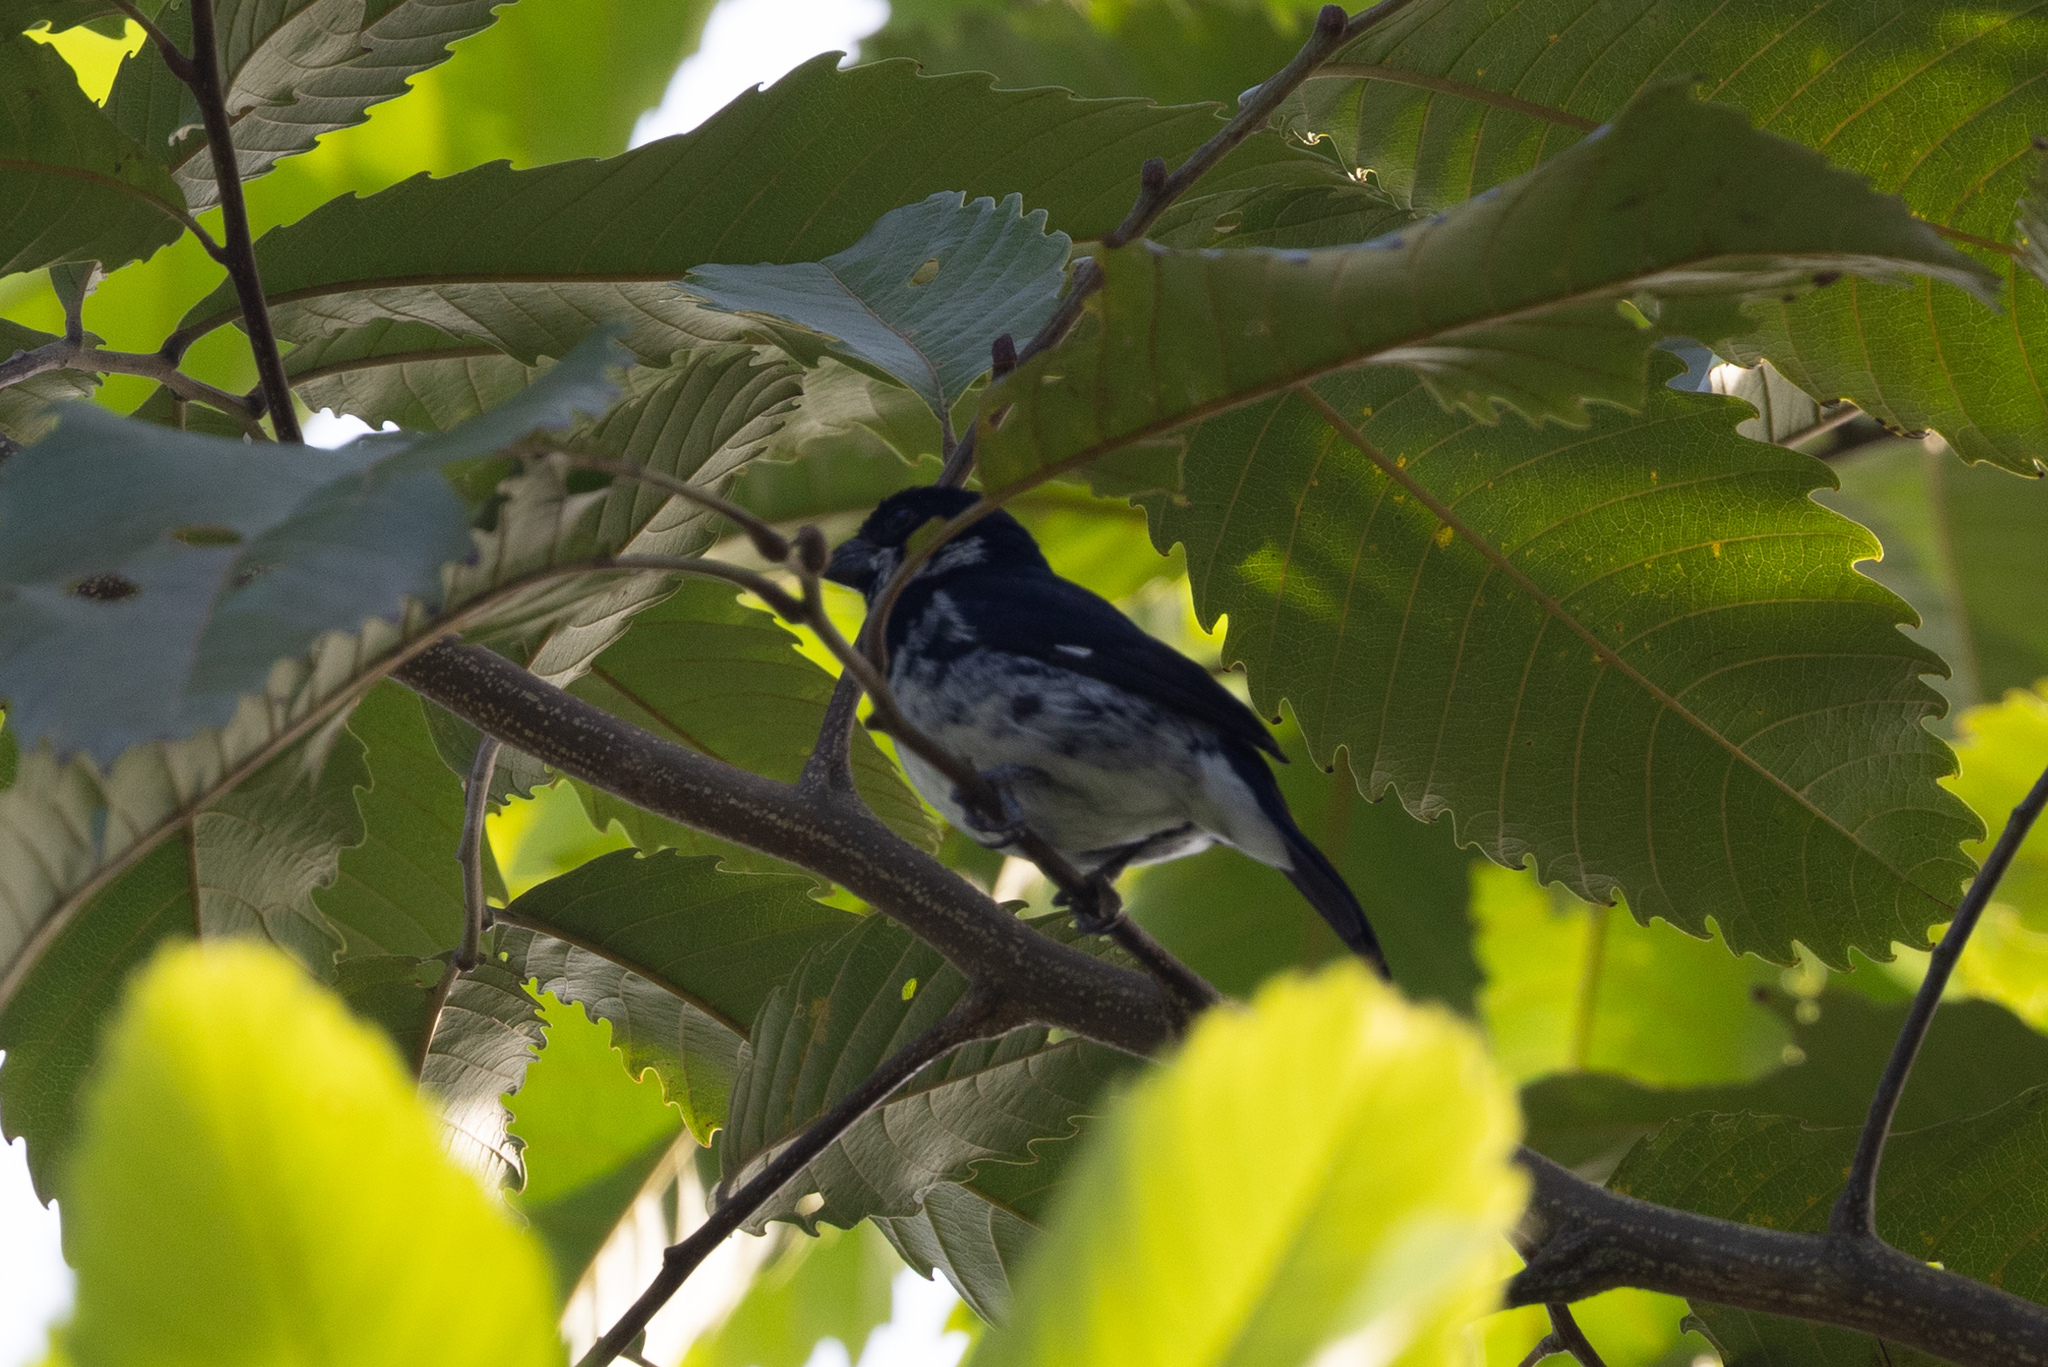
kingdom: Animalia
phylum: Chordata
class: Aves
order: Passeriformes
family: Thraupidae
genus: Sporophila
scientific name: Sporophila corvina
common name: Variable seedeater
